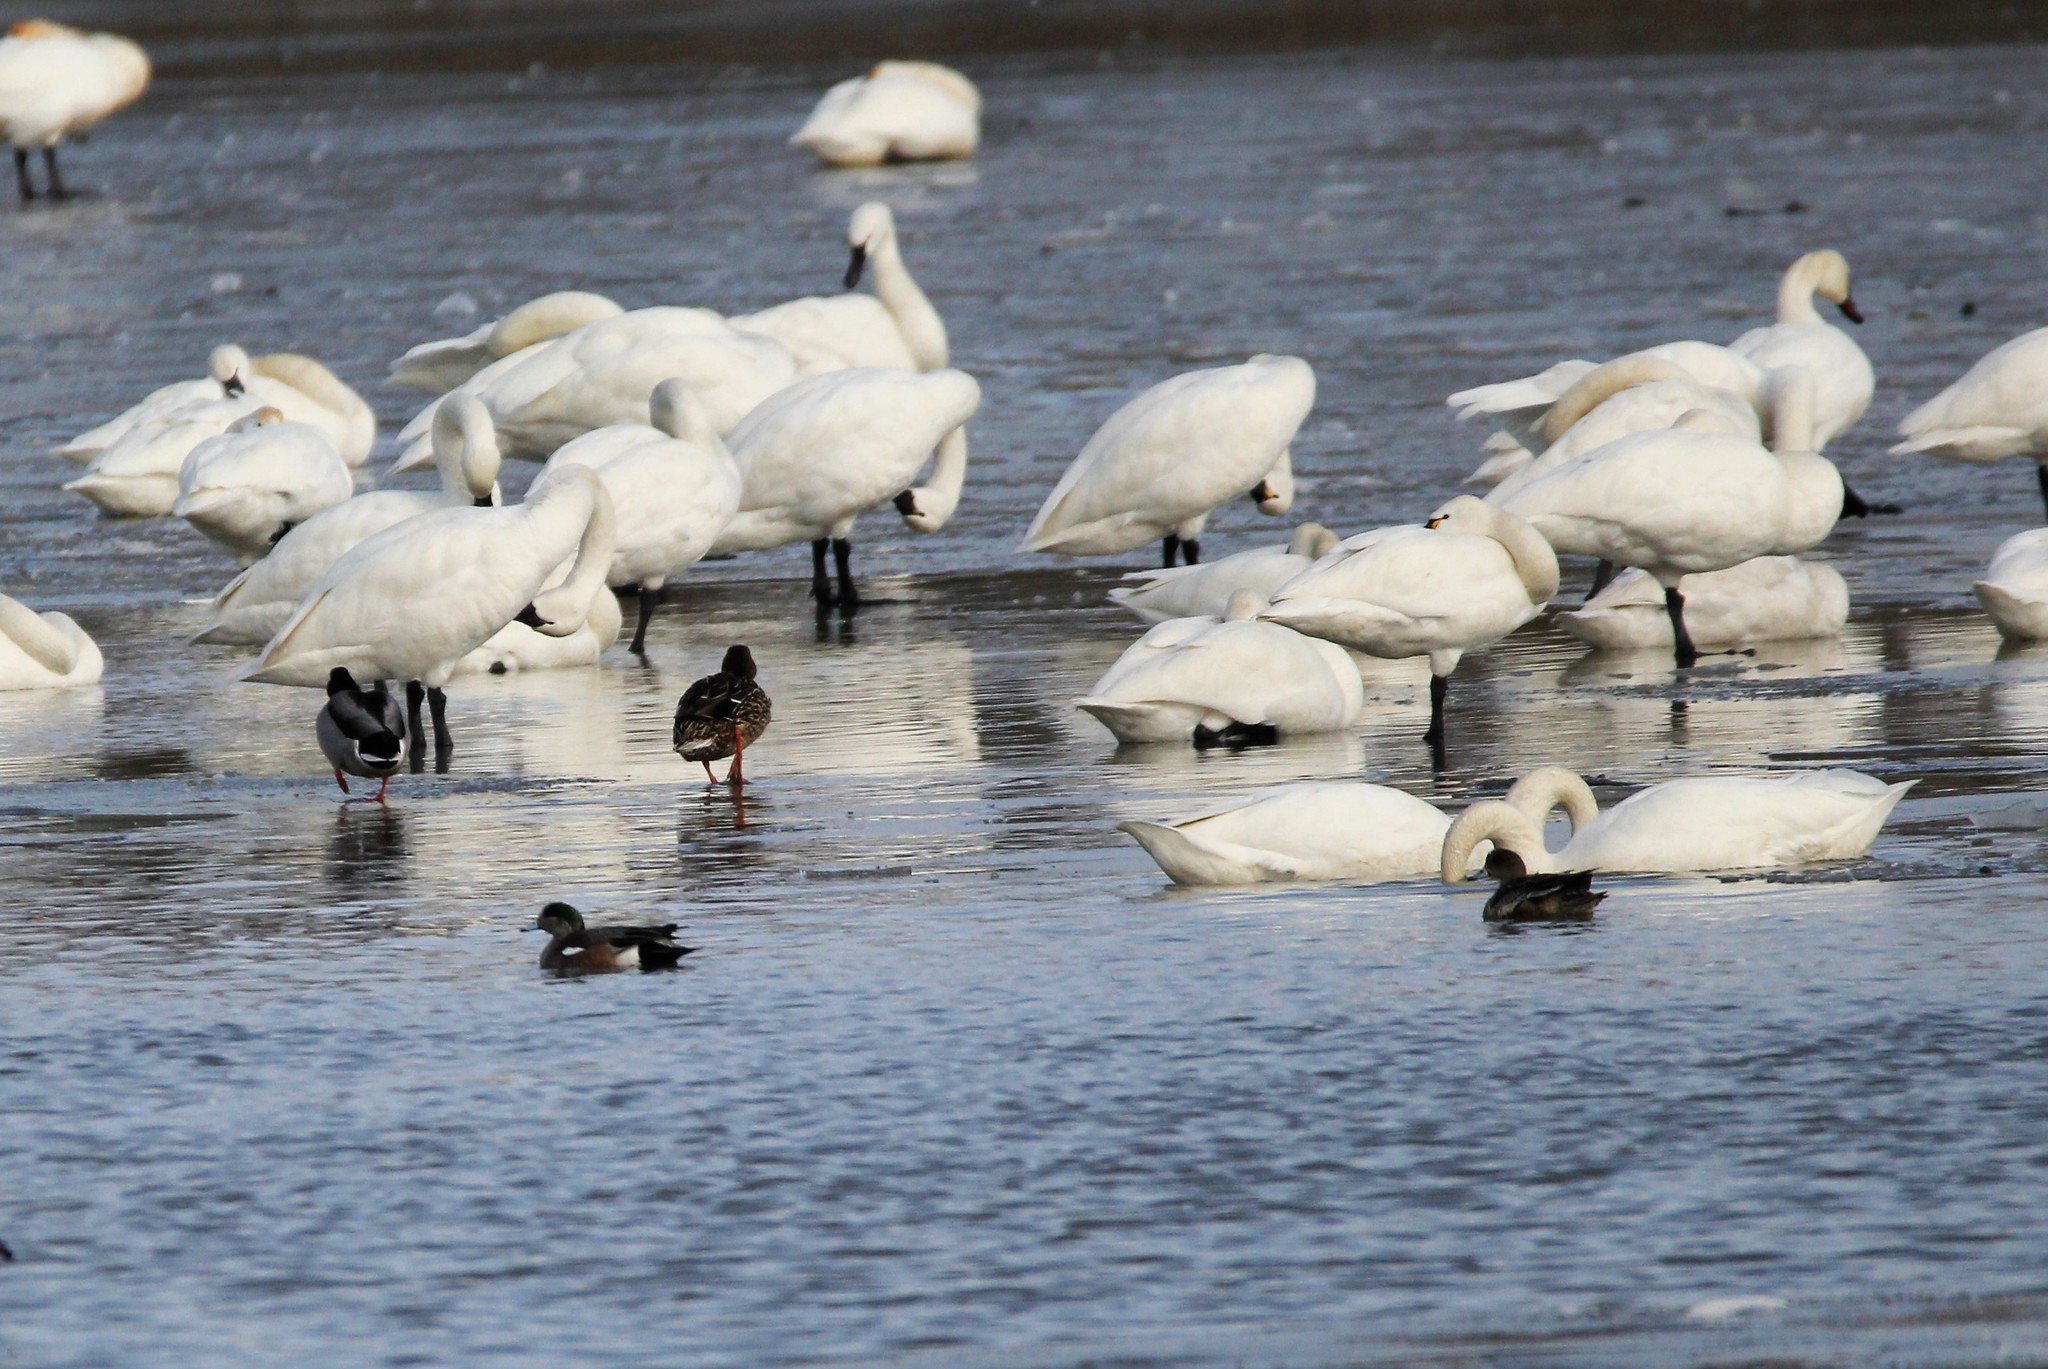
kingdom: Animalia
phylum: Chordata
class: Aves
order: Anseriformes
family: Anatidae
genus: Mareca
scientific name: Mareca americana
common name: American wigeon
